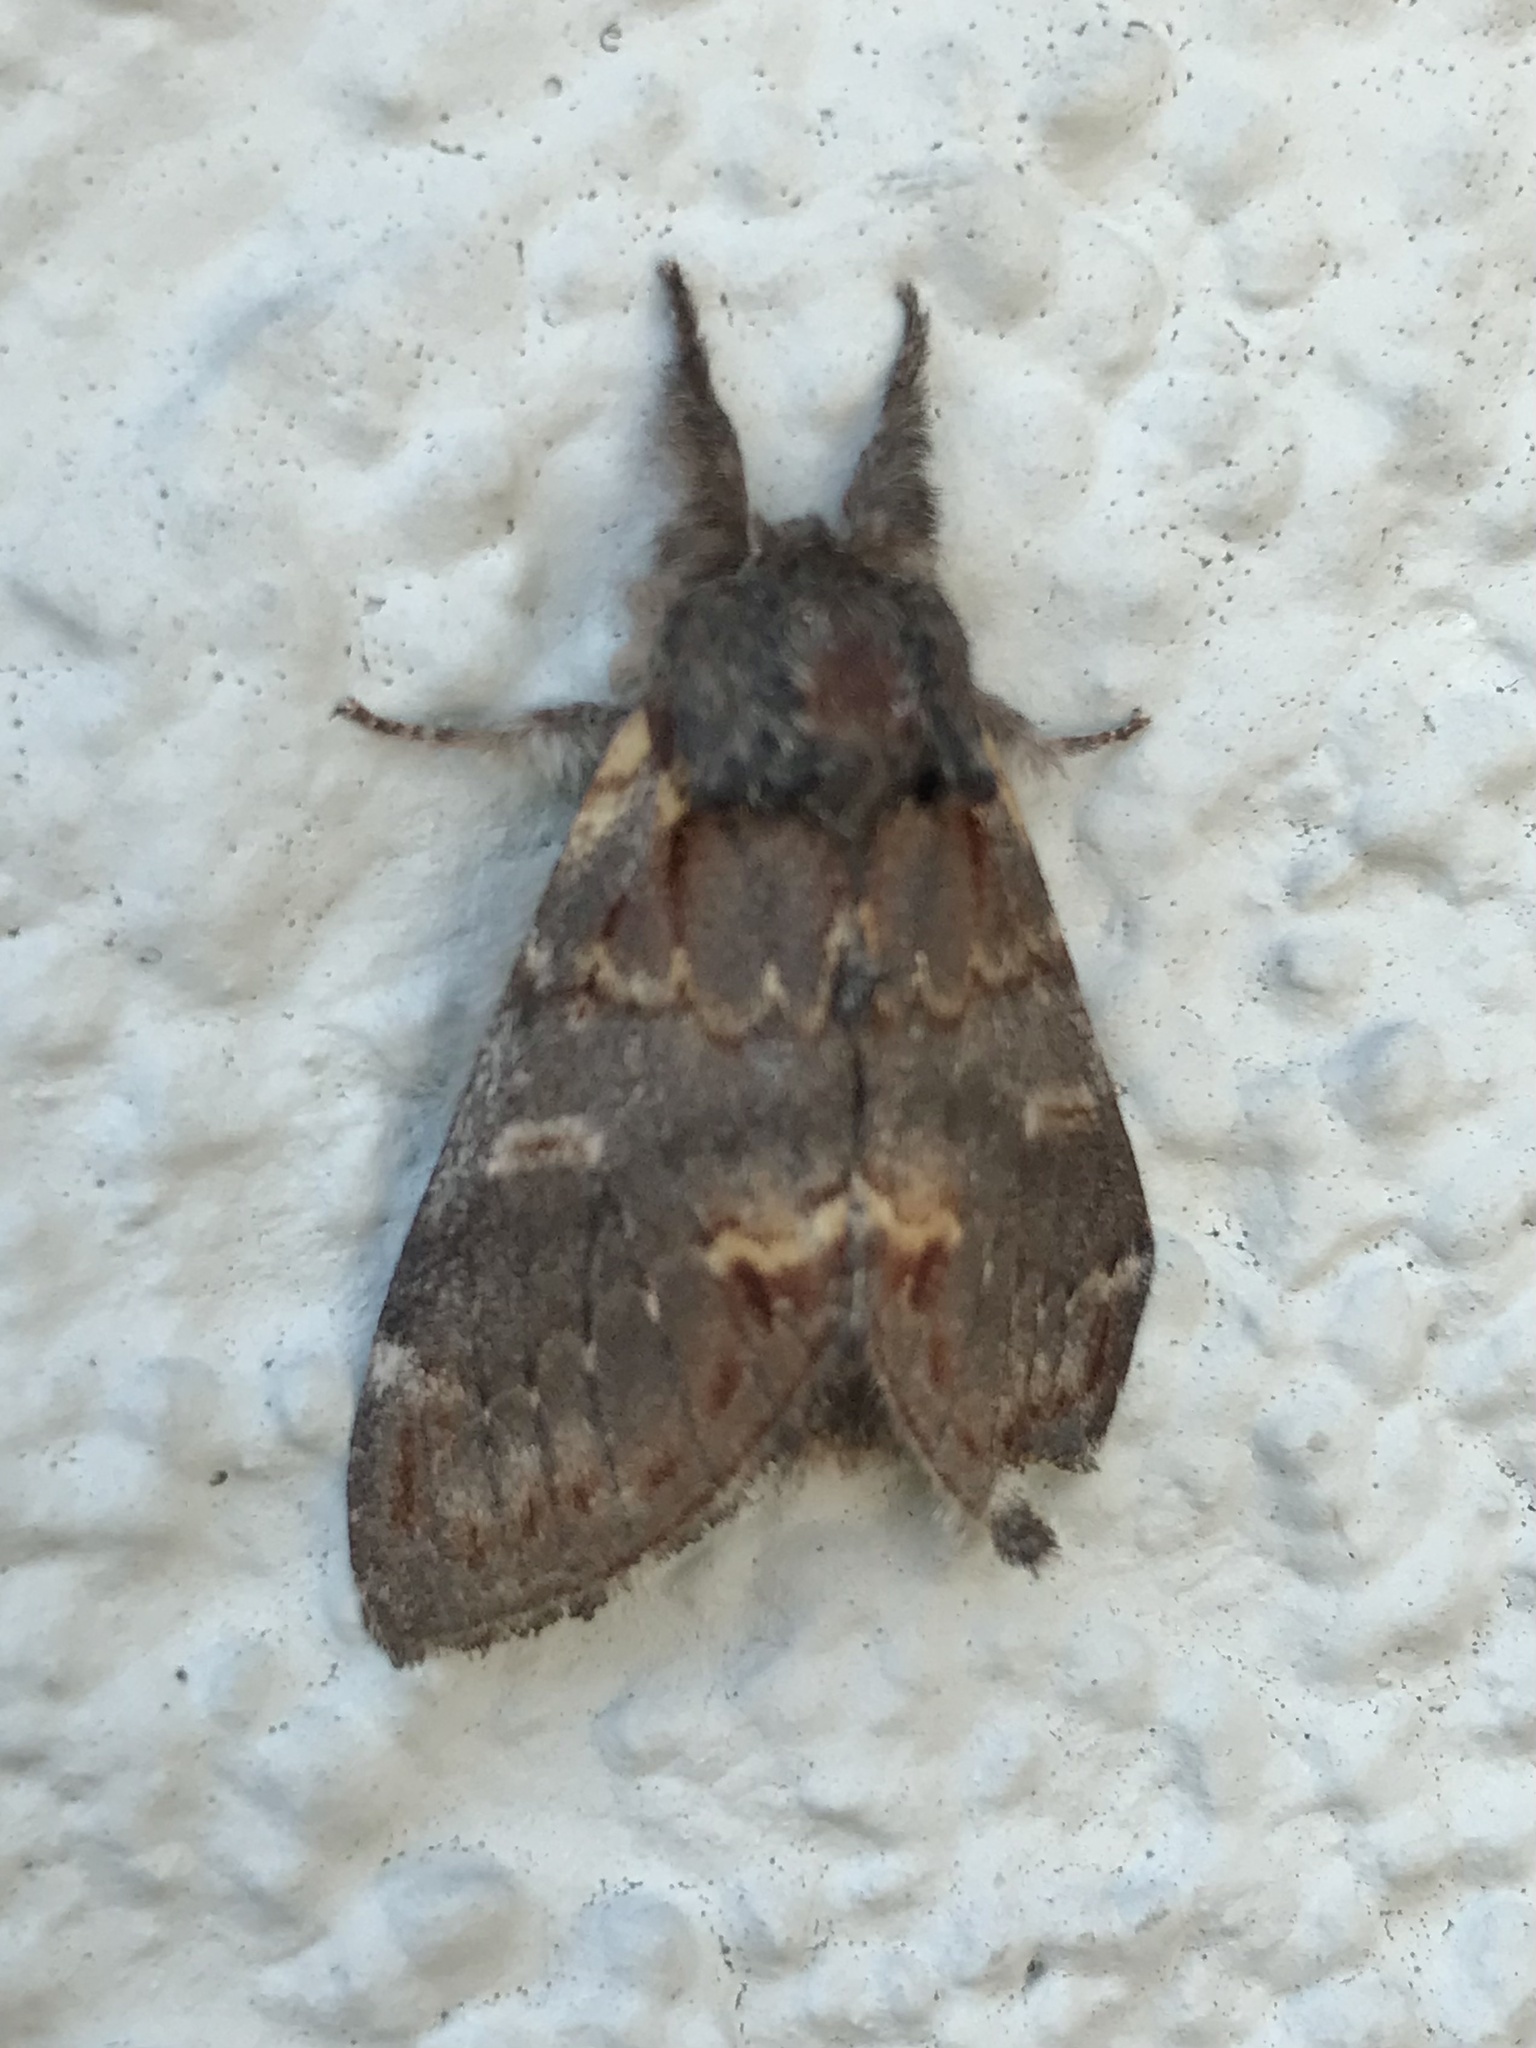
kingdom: Animalia
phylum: Arthropoda
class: Insecta
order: Lepidoptera
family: Notodontidae
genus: Notodonta
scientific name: Notodonta dromedarius
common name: Iron prominent
